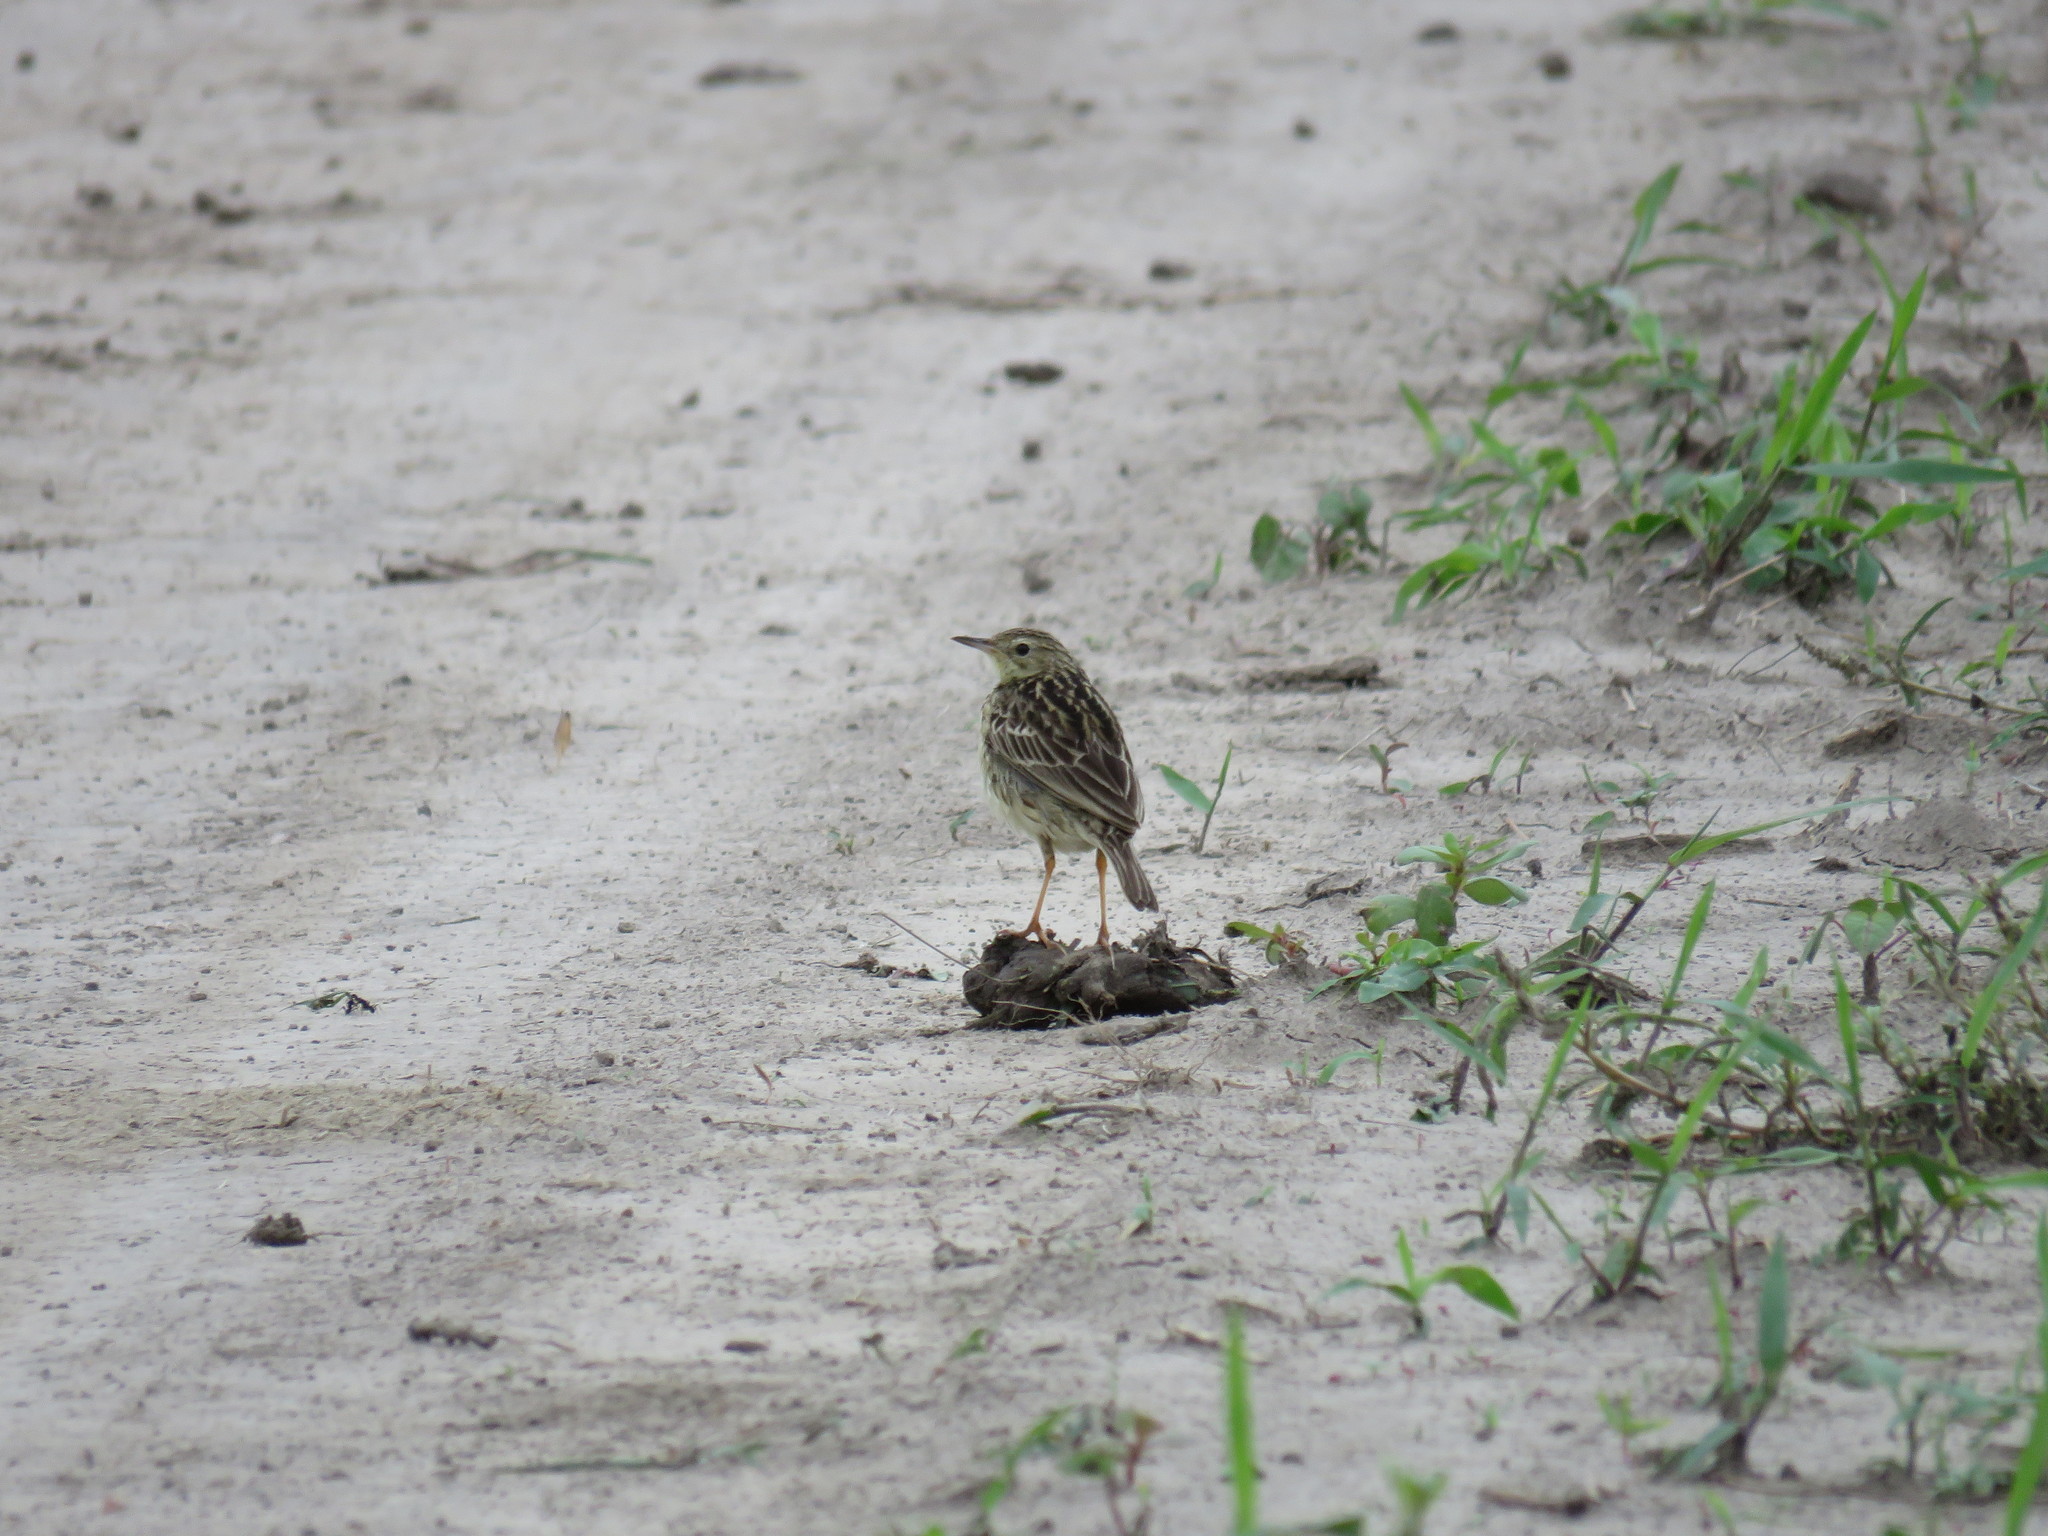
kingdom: Animalia
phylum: Chordata
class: Aves
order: Passeriformes
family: Motacillidae
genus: Anthus
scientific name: Anthus chii
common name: Yellowish pipit
